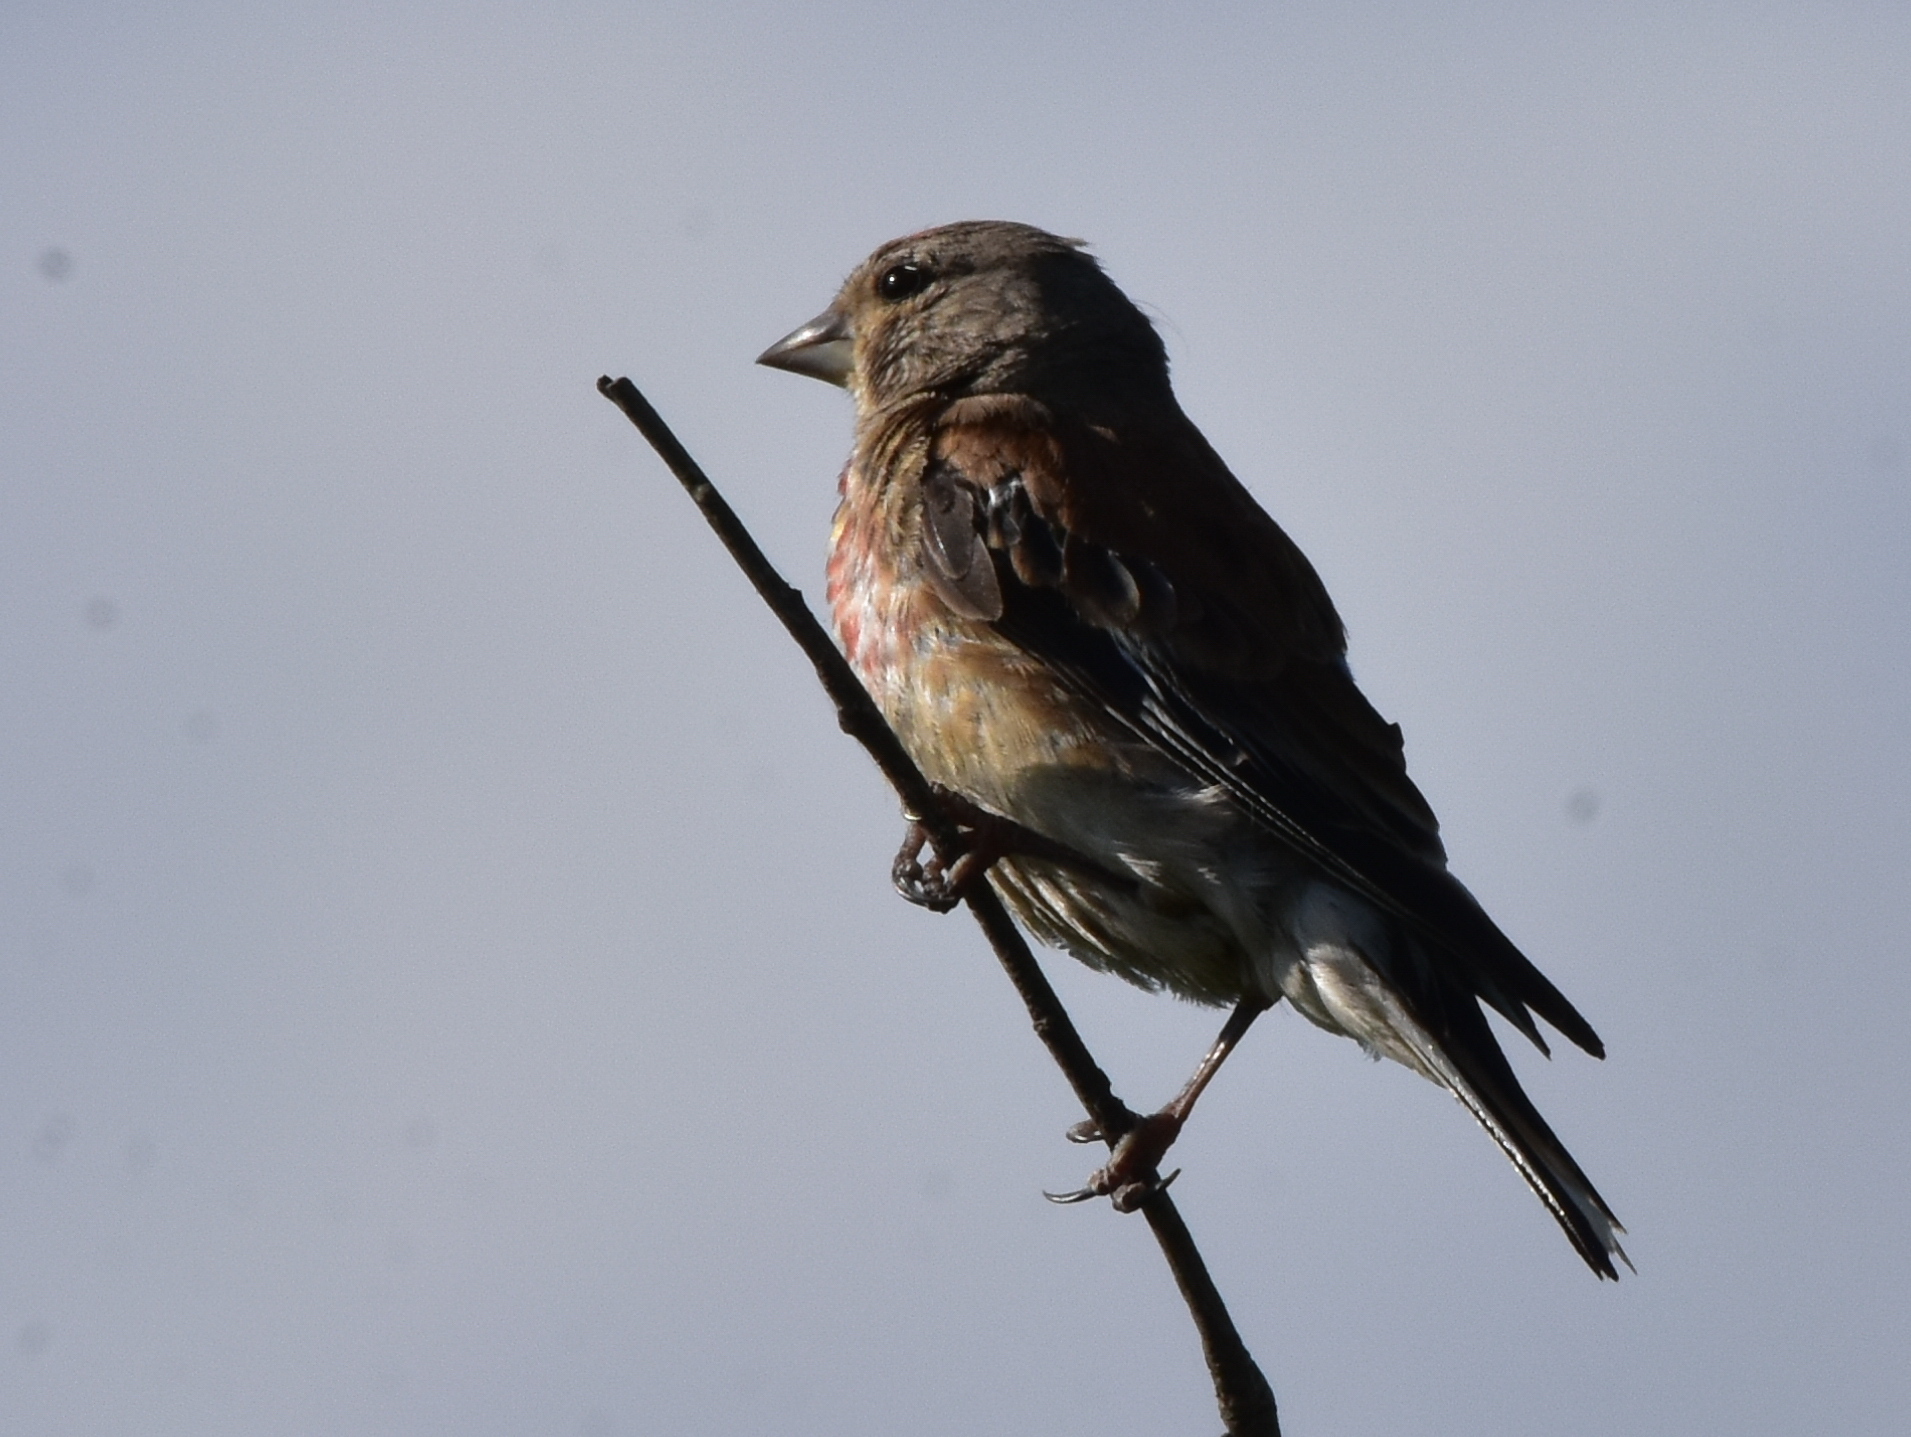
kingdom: Animalia
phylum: Chordata
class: Aves
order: Passeriformes
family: Fringillidae
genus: Linaria
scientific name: Linaria cannabina
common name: Common linnet
